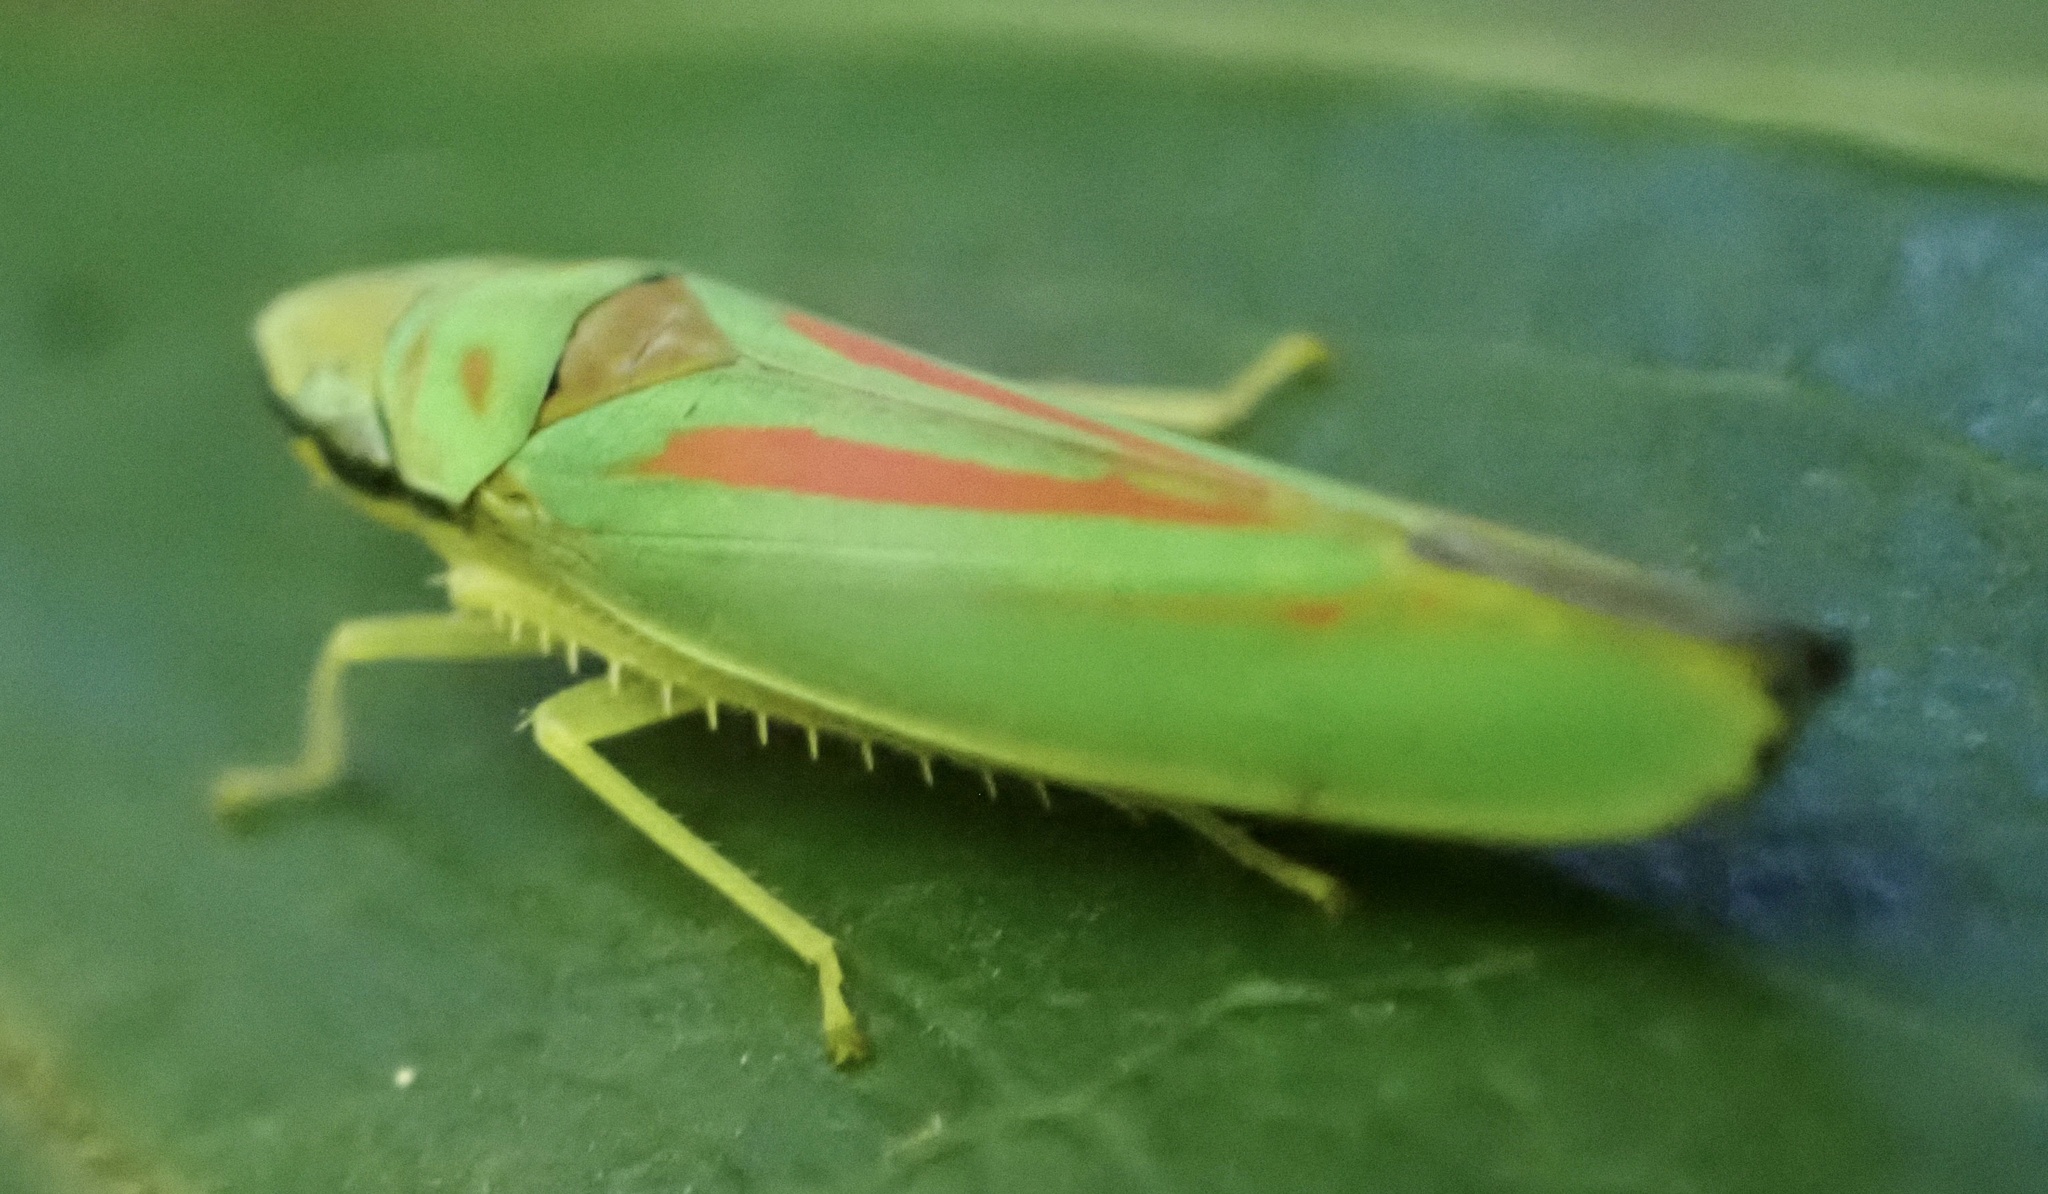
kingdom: Animalia
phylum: Arthropoda
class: Insecta
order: Hemiptera
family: Cicadellidae
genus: Graphocephala
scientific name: Graphocephala fennahi
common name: Rhododendron leafhopper
